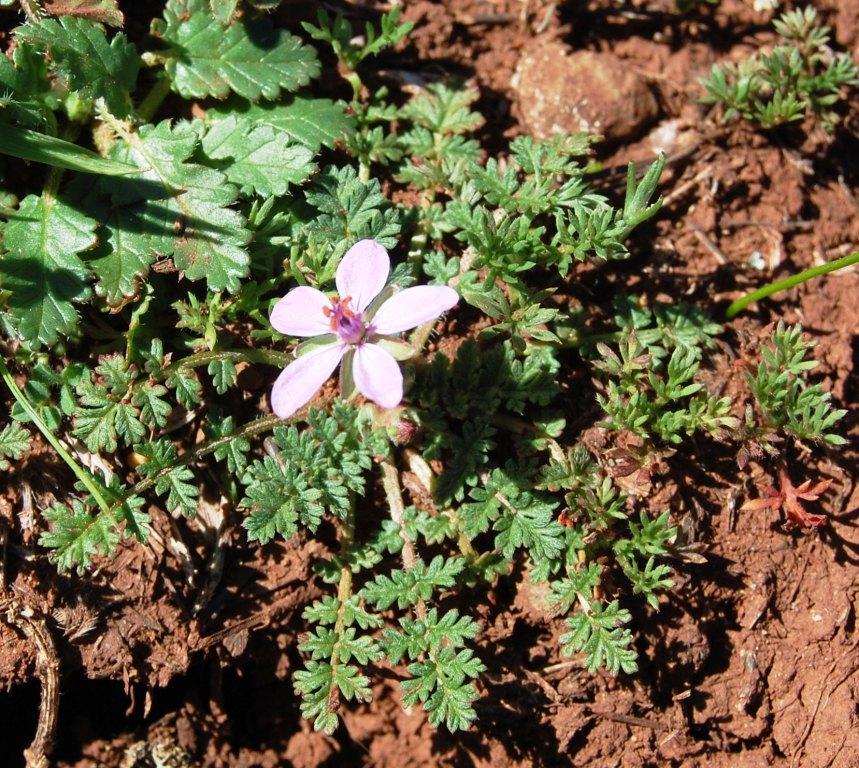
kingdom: Plantae
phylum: Tracheophyta
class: Magnoliopsida
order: Geraniales
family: Geraniaceae
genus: Erodium
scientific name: Erodium cicutarium
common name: Common stork's-bill
